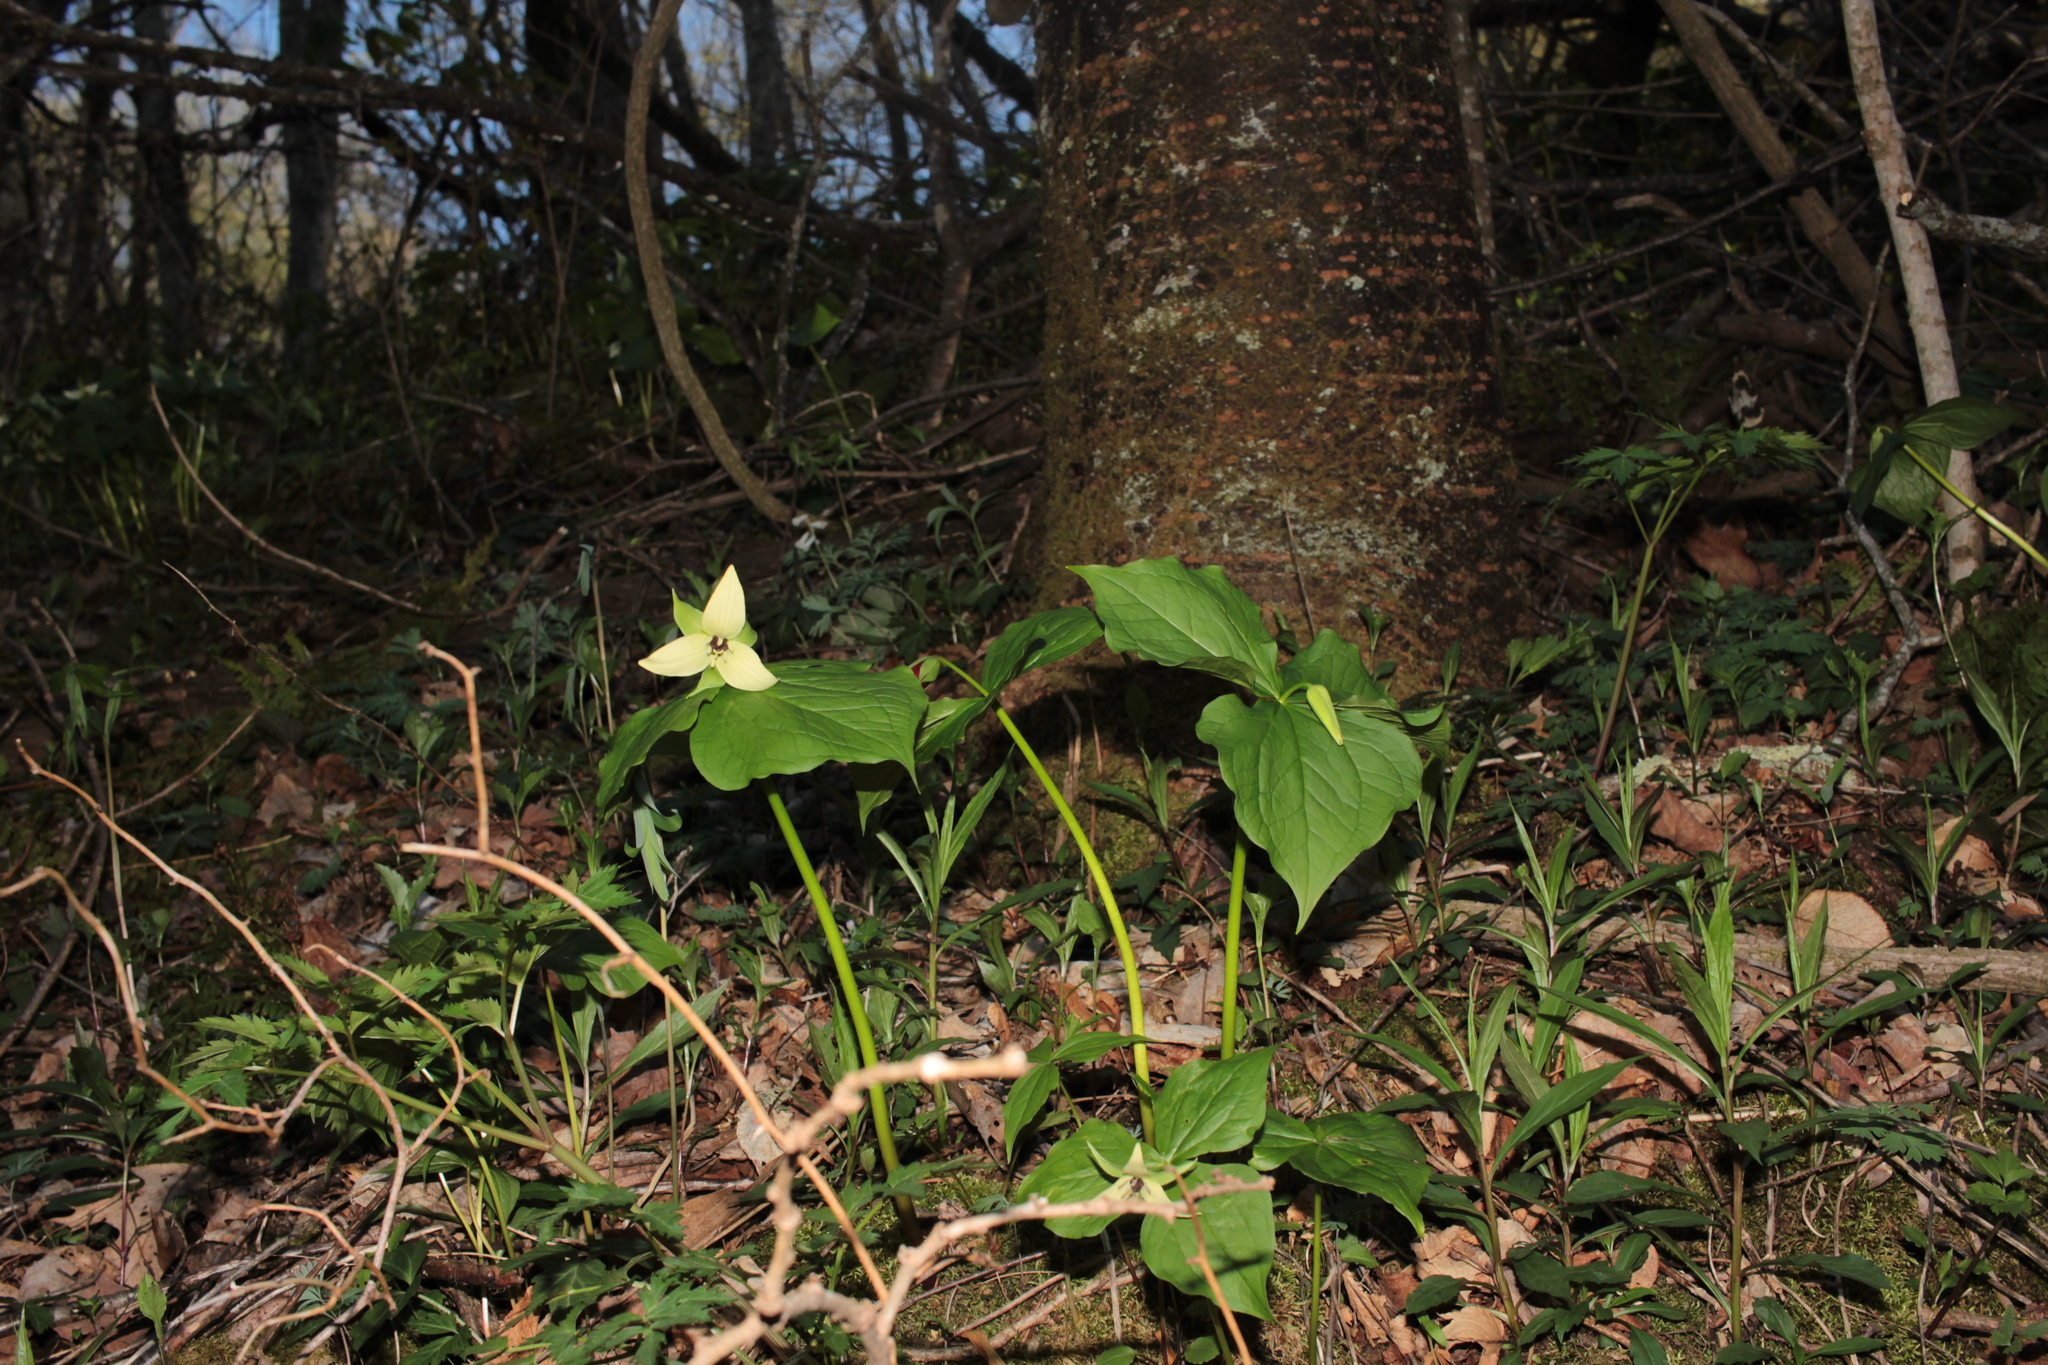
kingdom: Plantae
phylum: Tracheophyta
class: Liliopsida
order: Liliales
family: Melanthiaceae
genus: Trillium
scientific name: Trillium erectum
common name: Purple trillium
